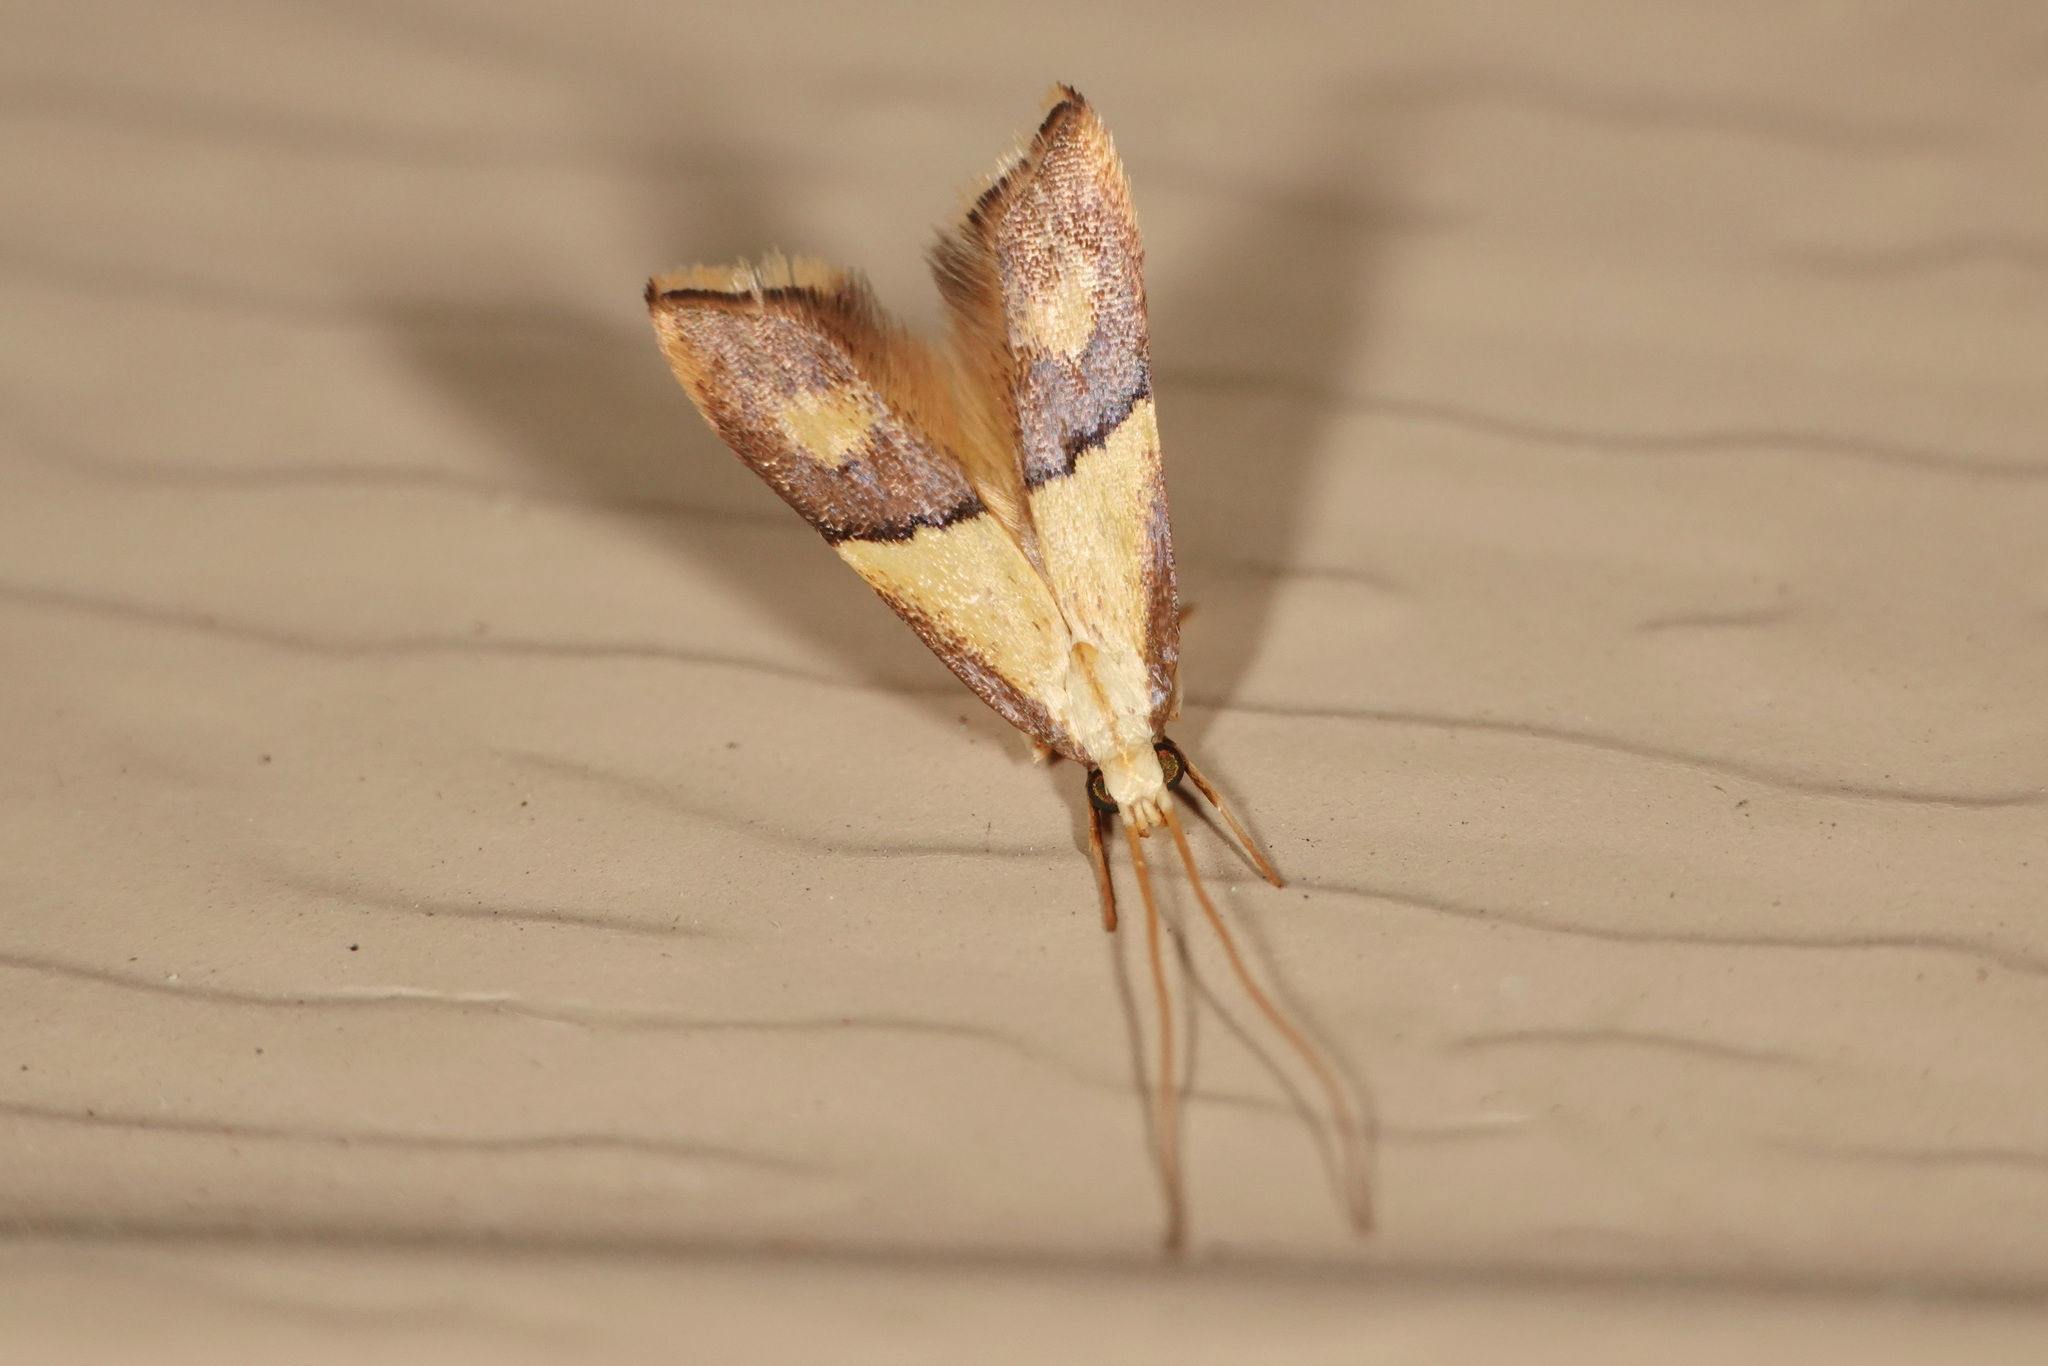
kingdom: Animalia
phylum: Arthropoda
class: Insecta
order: Lepidoptera
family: Lecithoceridae
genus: Crocanthes
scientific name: Crocanthes prasinopis
